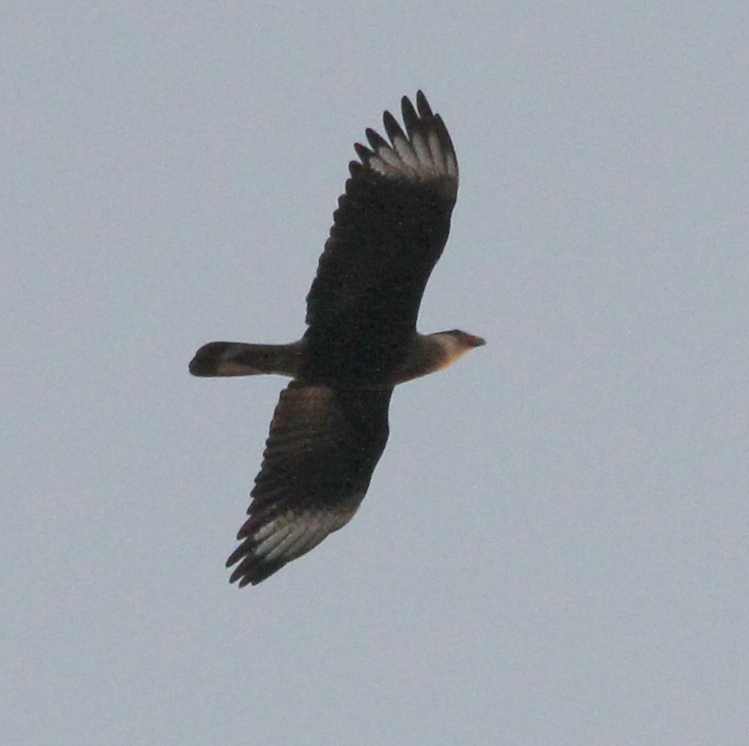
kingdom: Animalia
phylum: Chordata
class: Aves
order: Falconiformes
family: Falconidae
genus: Caracara
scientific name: Caracara plancus
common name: Southern caracara
